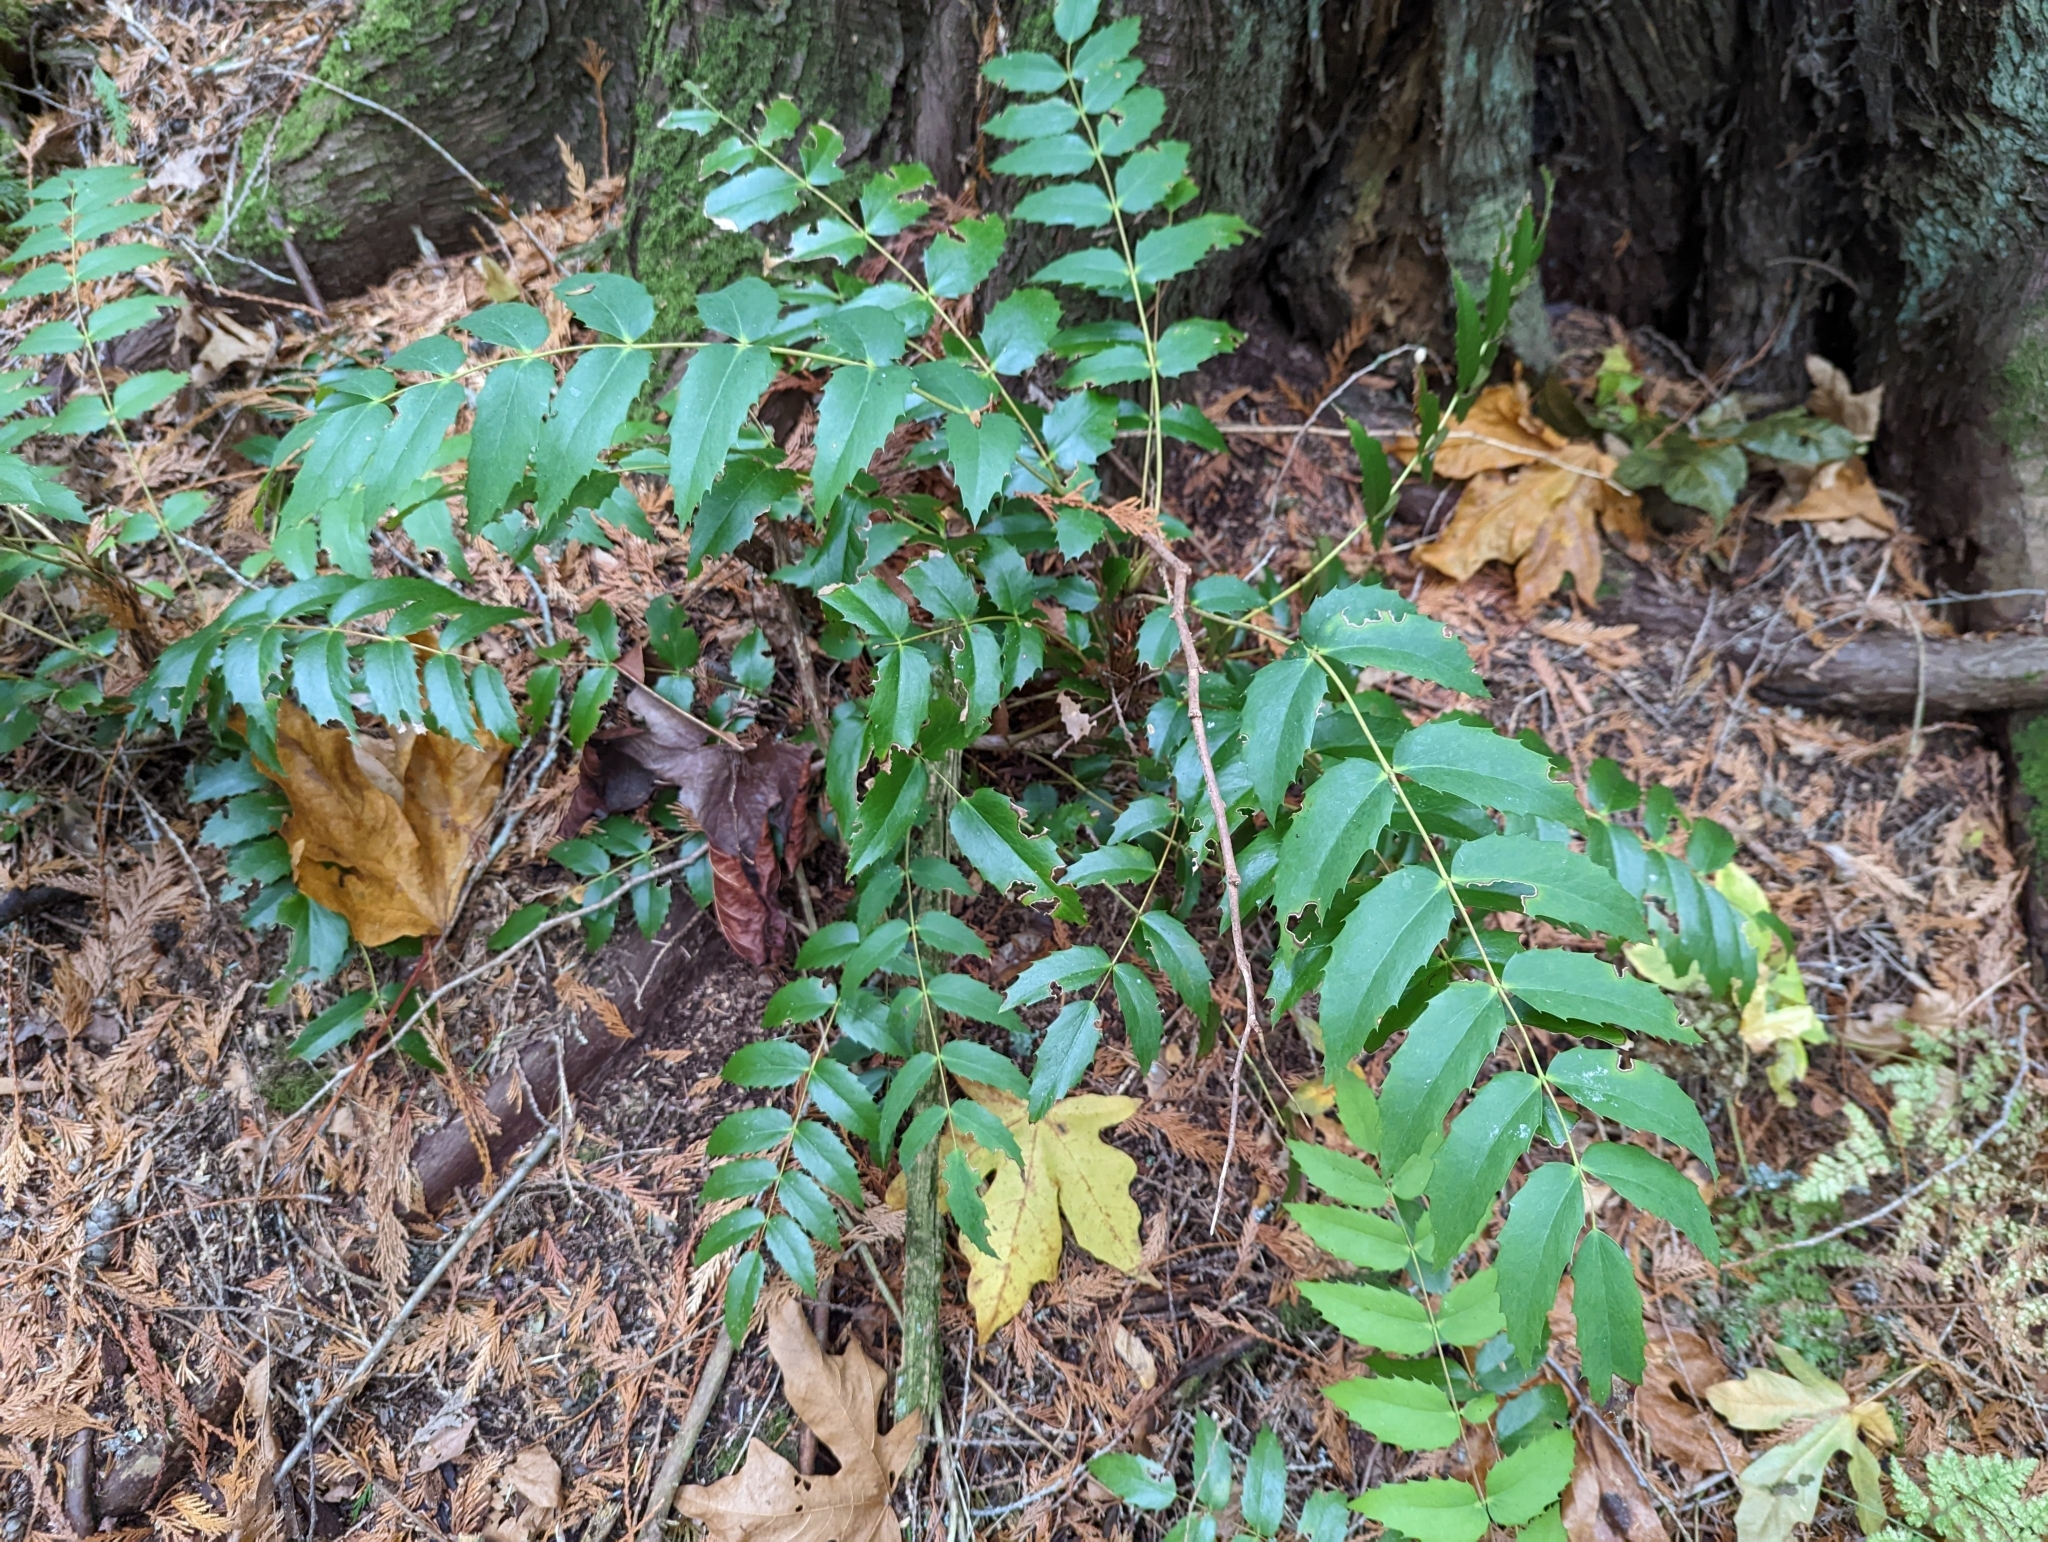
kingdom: Plantae
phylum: Tracheophyta
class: Magnoliopsida
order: Ranunculales
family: Berberidaceae
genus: Mahonia
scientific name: Mahonia nervosa
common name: Cascade oregon-grape
